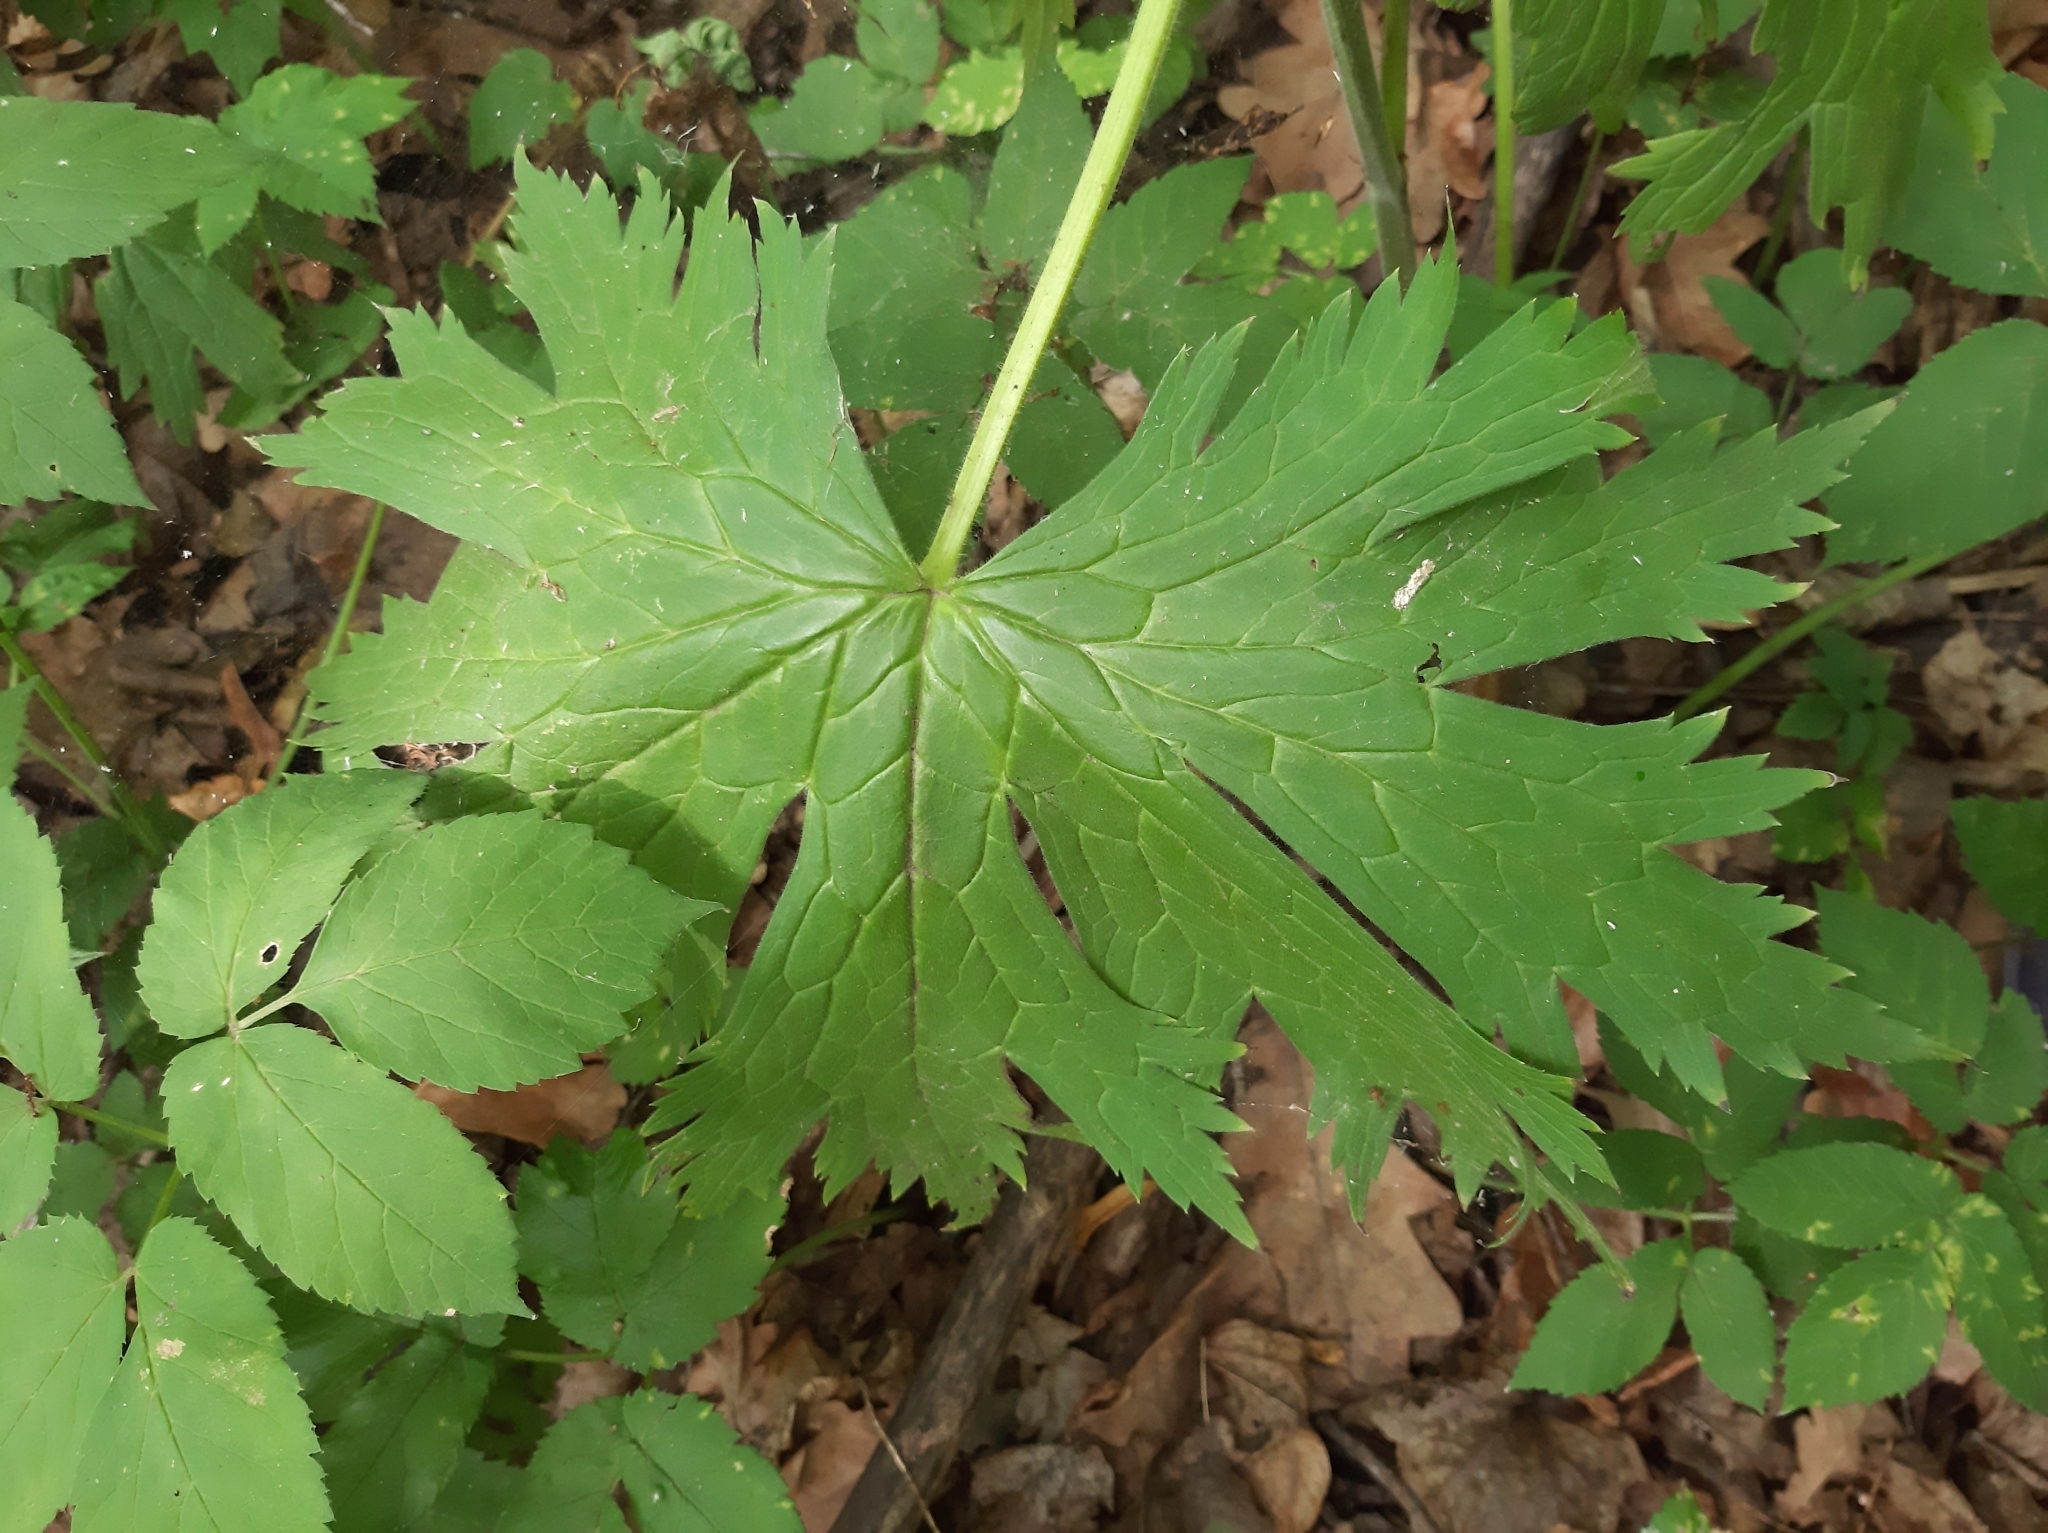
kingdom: Plantae
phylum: Tracheophyta
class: Magnoliopsida
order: Ranunculales
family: Ranunculaceae
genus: Aconitum
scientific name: Aconitum septentrionale
